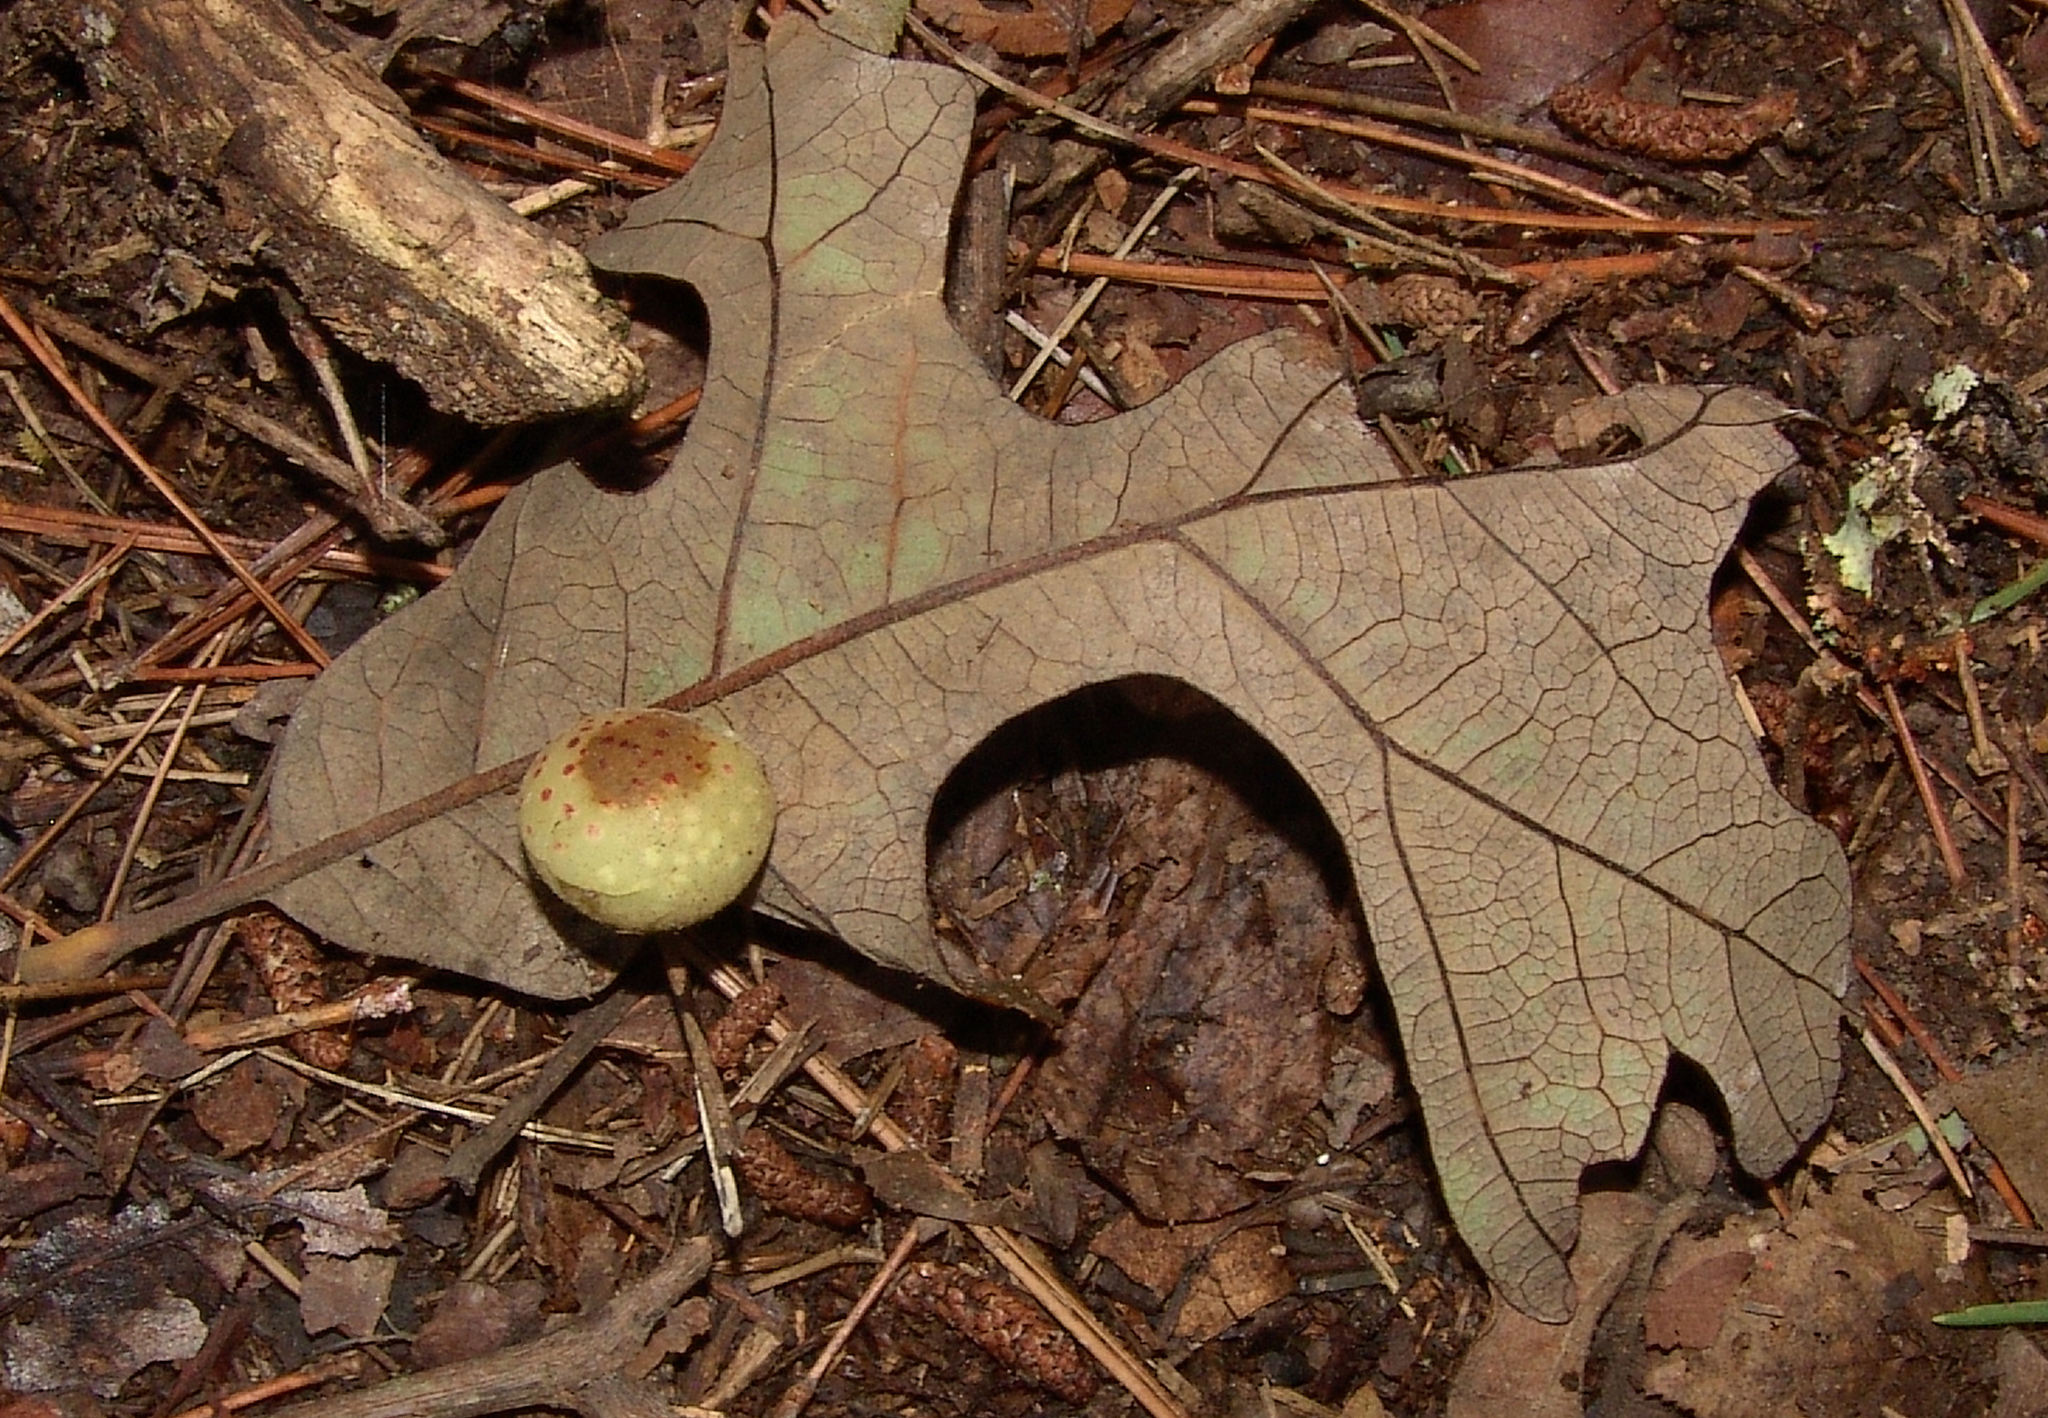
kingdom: Animalia
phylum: Arthropoda
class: Insecta
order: Hymenoptera
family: Cynipidae
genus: Atrusca
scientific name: Atrusca
